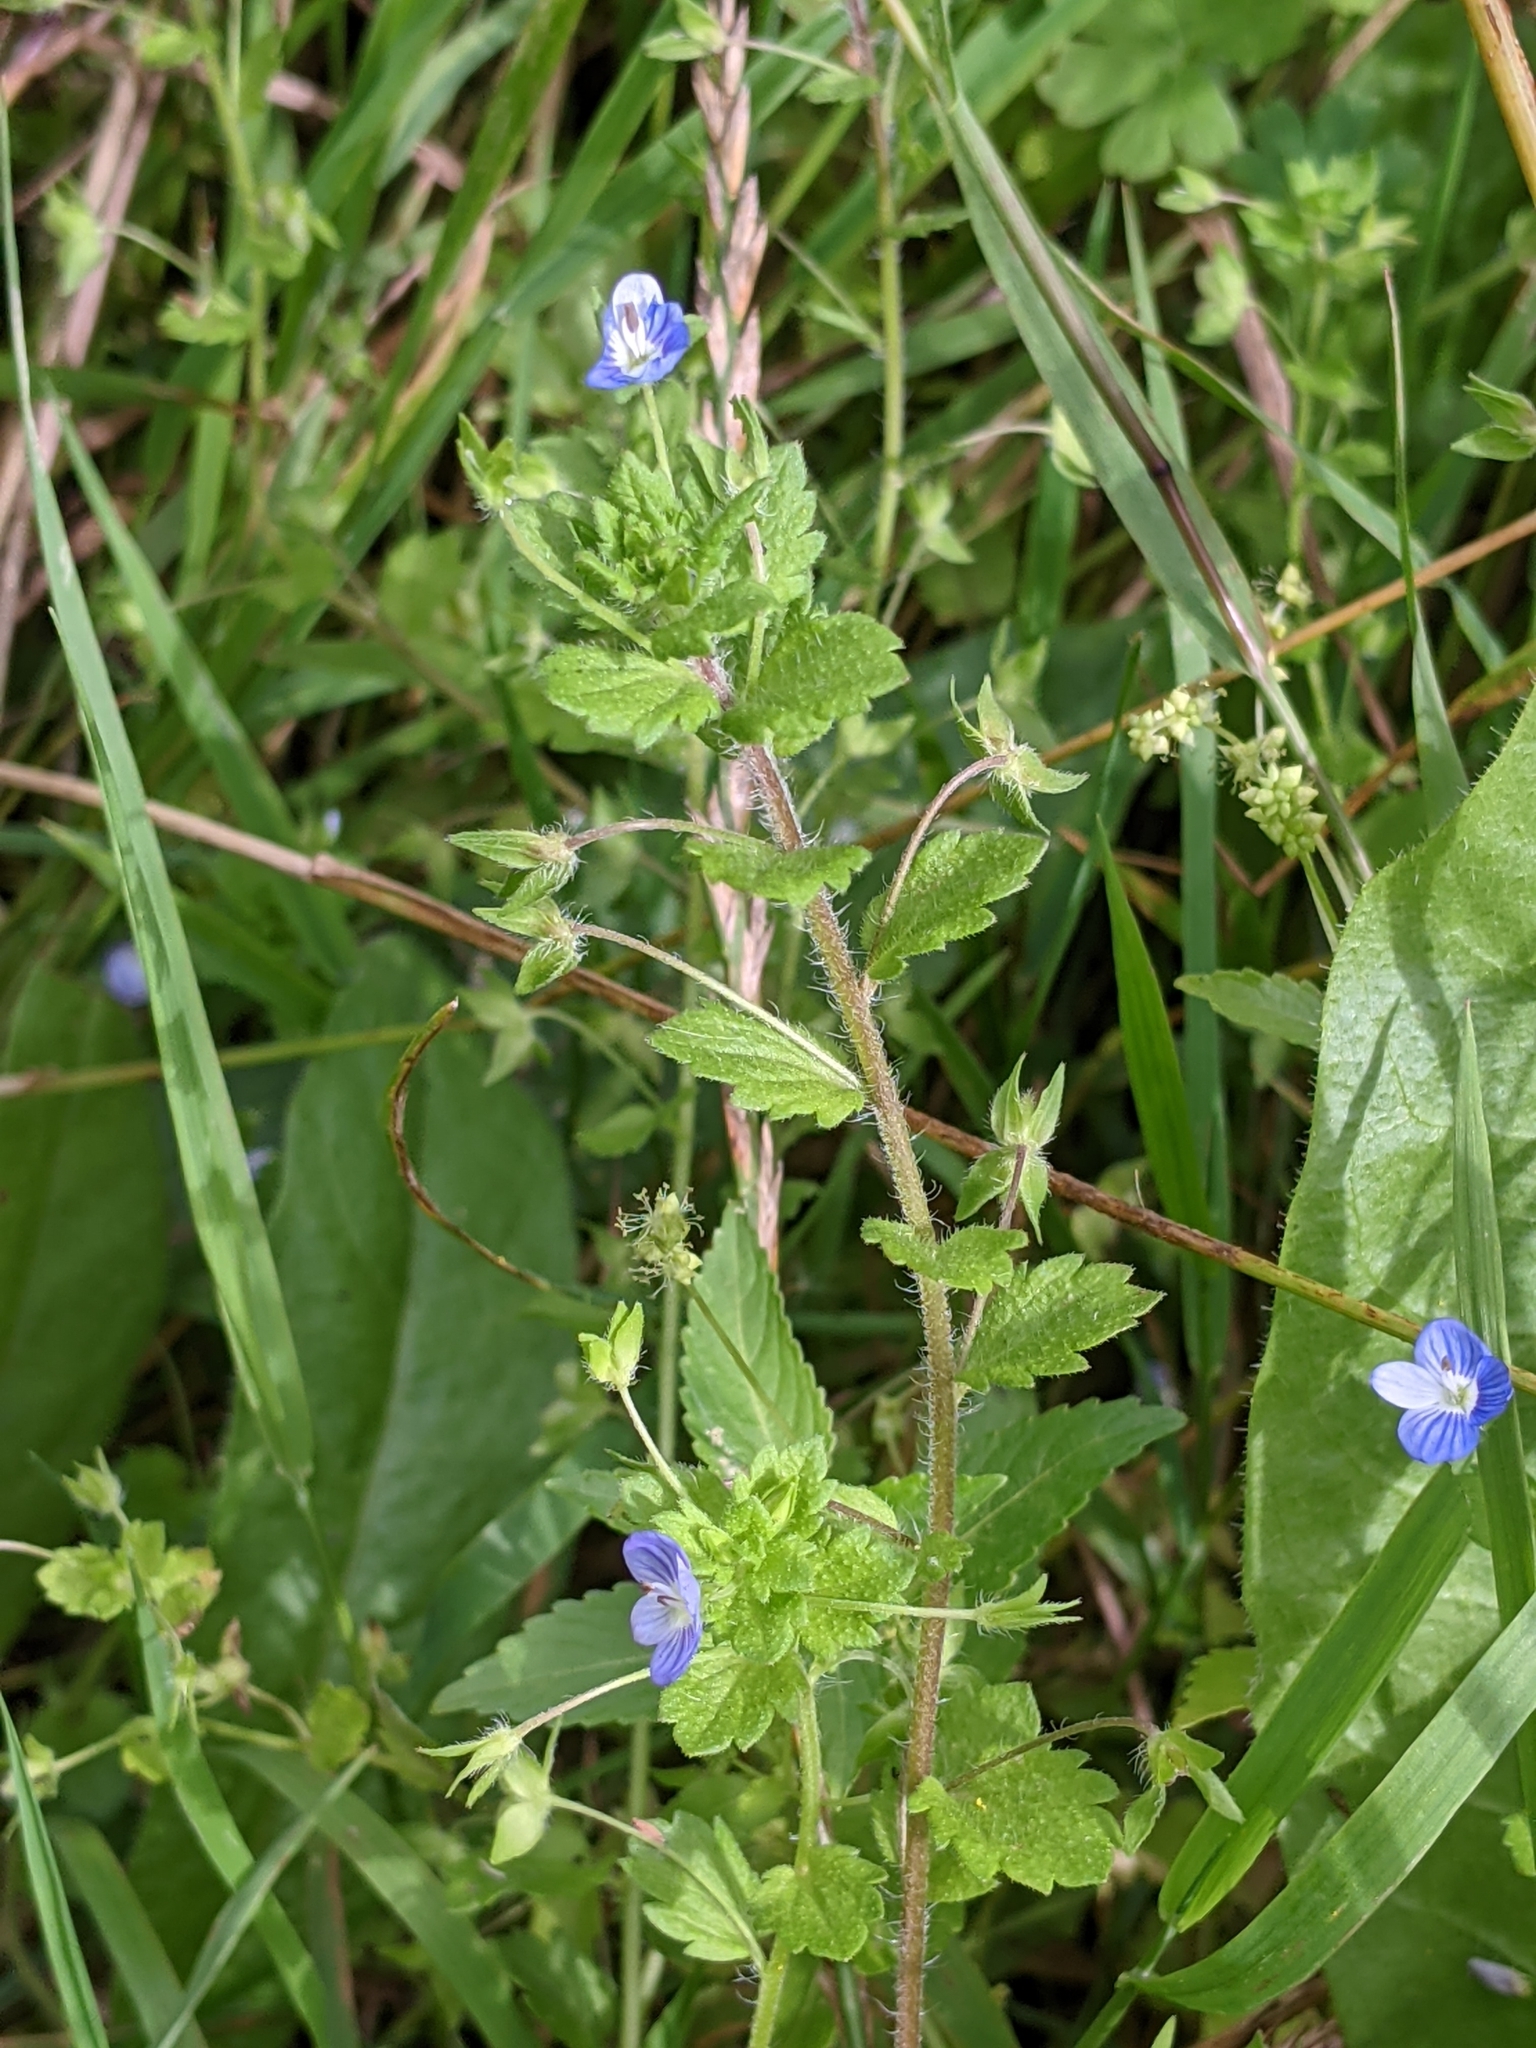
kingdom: Plantae
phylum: Tracheophyta
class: Magnoliopsida
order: Lamiales
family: Plantaginaceae
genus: Veronica
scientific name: Veronica persica
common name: Common field-speedwell
